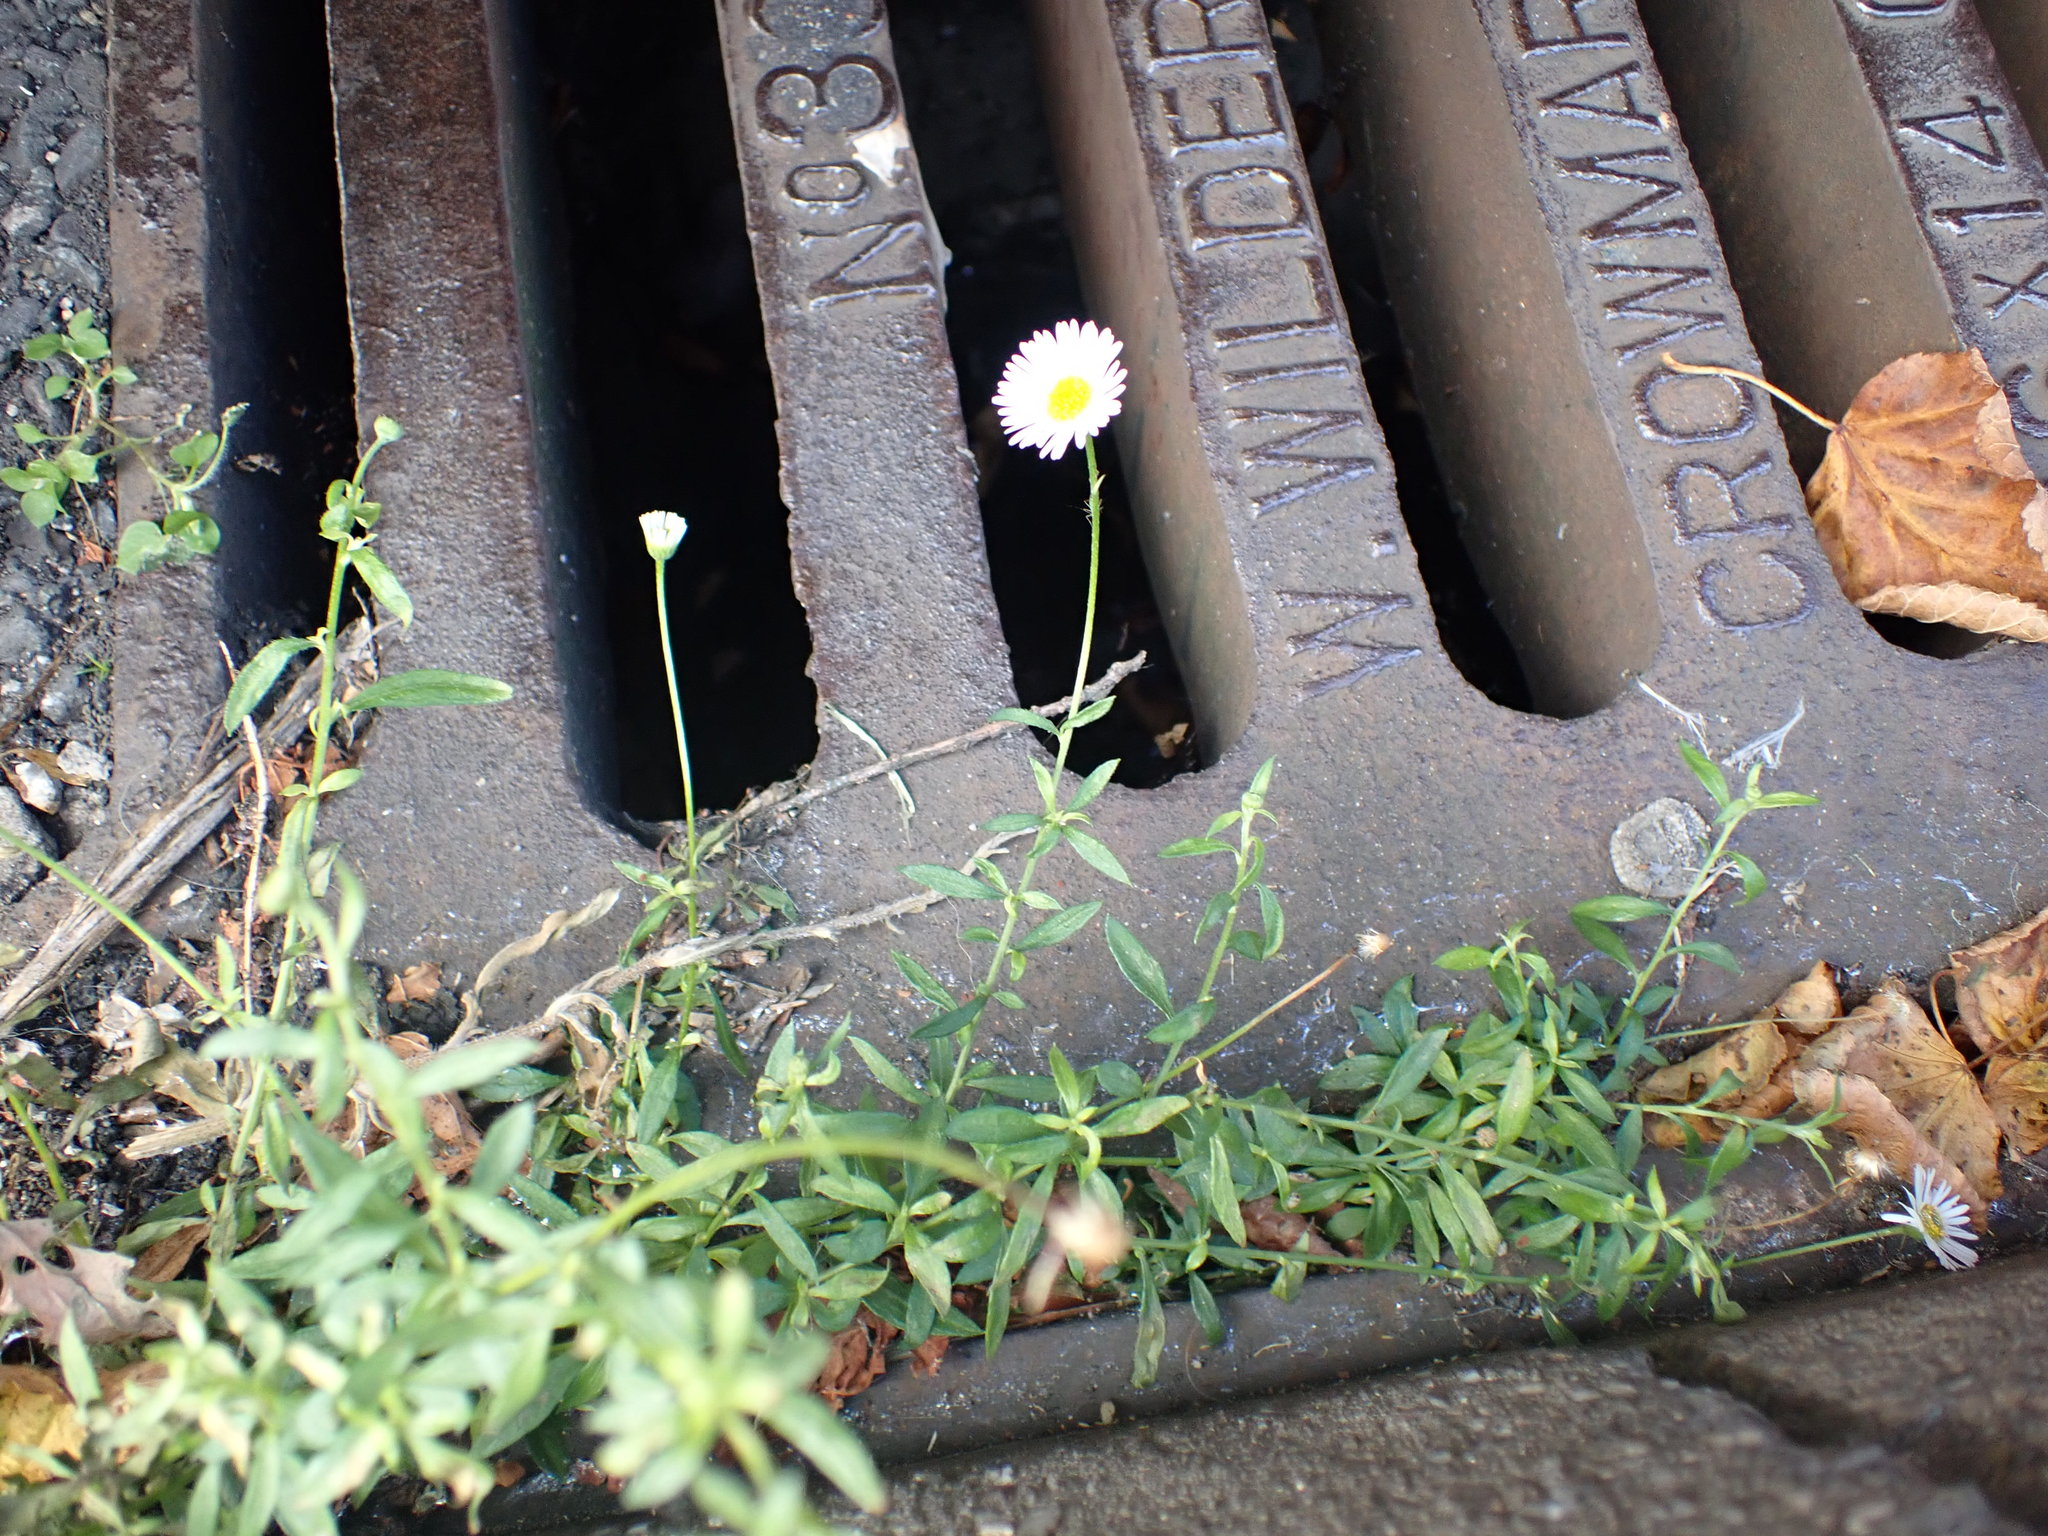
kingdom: Plantae
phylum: Tracheophyta
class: Magnoliopsida
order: Asterales
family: Asteraceae
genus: Erigeron
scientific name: Erigeron karvinskianus
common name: Mexican fleabane
